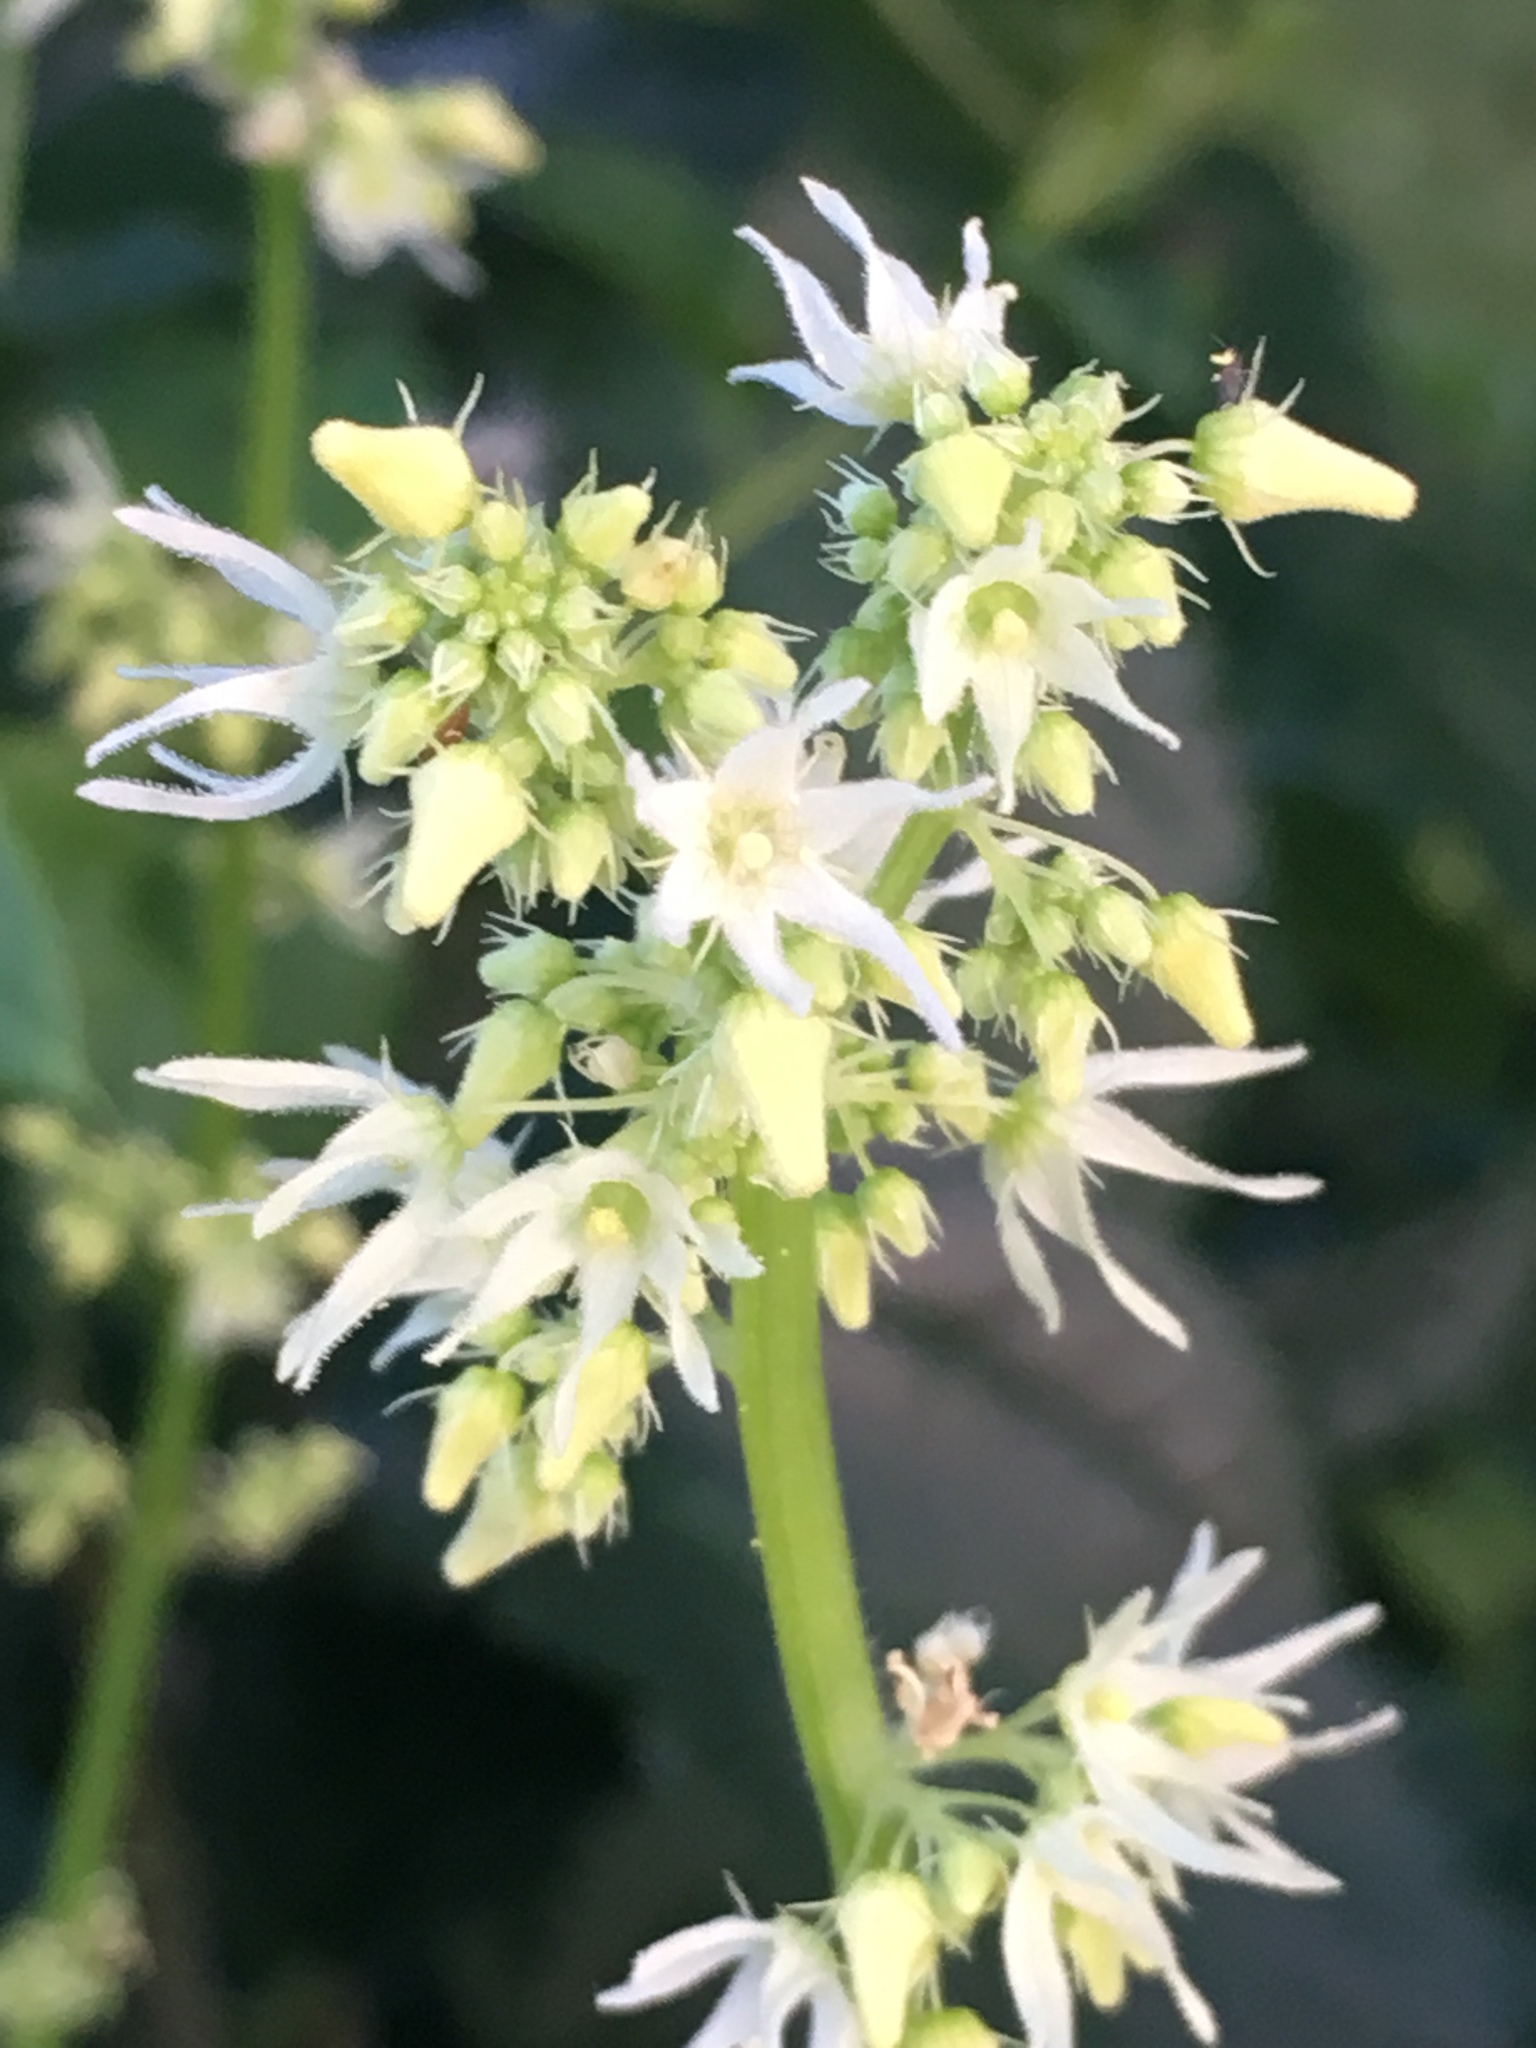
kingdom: Plantae
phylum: Tracheophyta
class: Magnoliopsida
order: Cucurbitales
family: Cucurbitaceae
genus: Echinocystis
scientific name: Echinocystis lobata
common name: Wild cucumber
